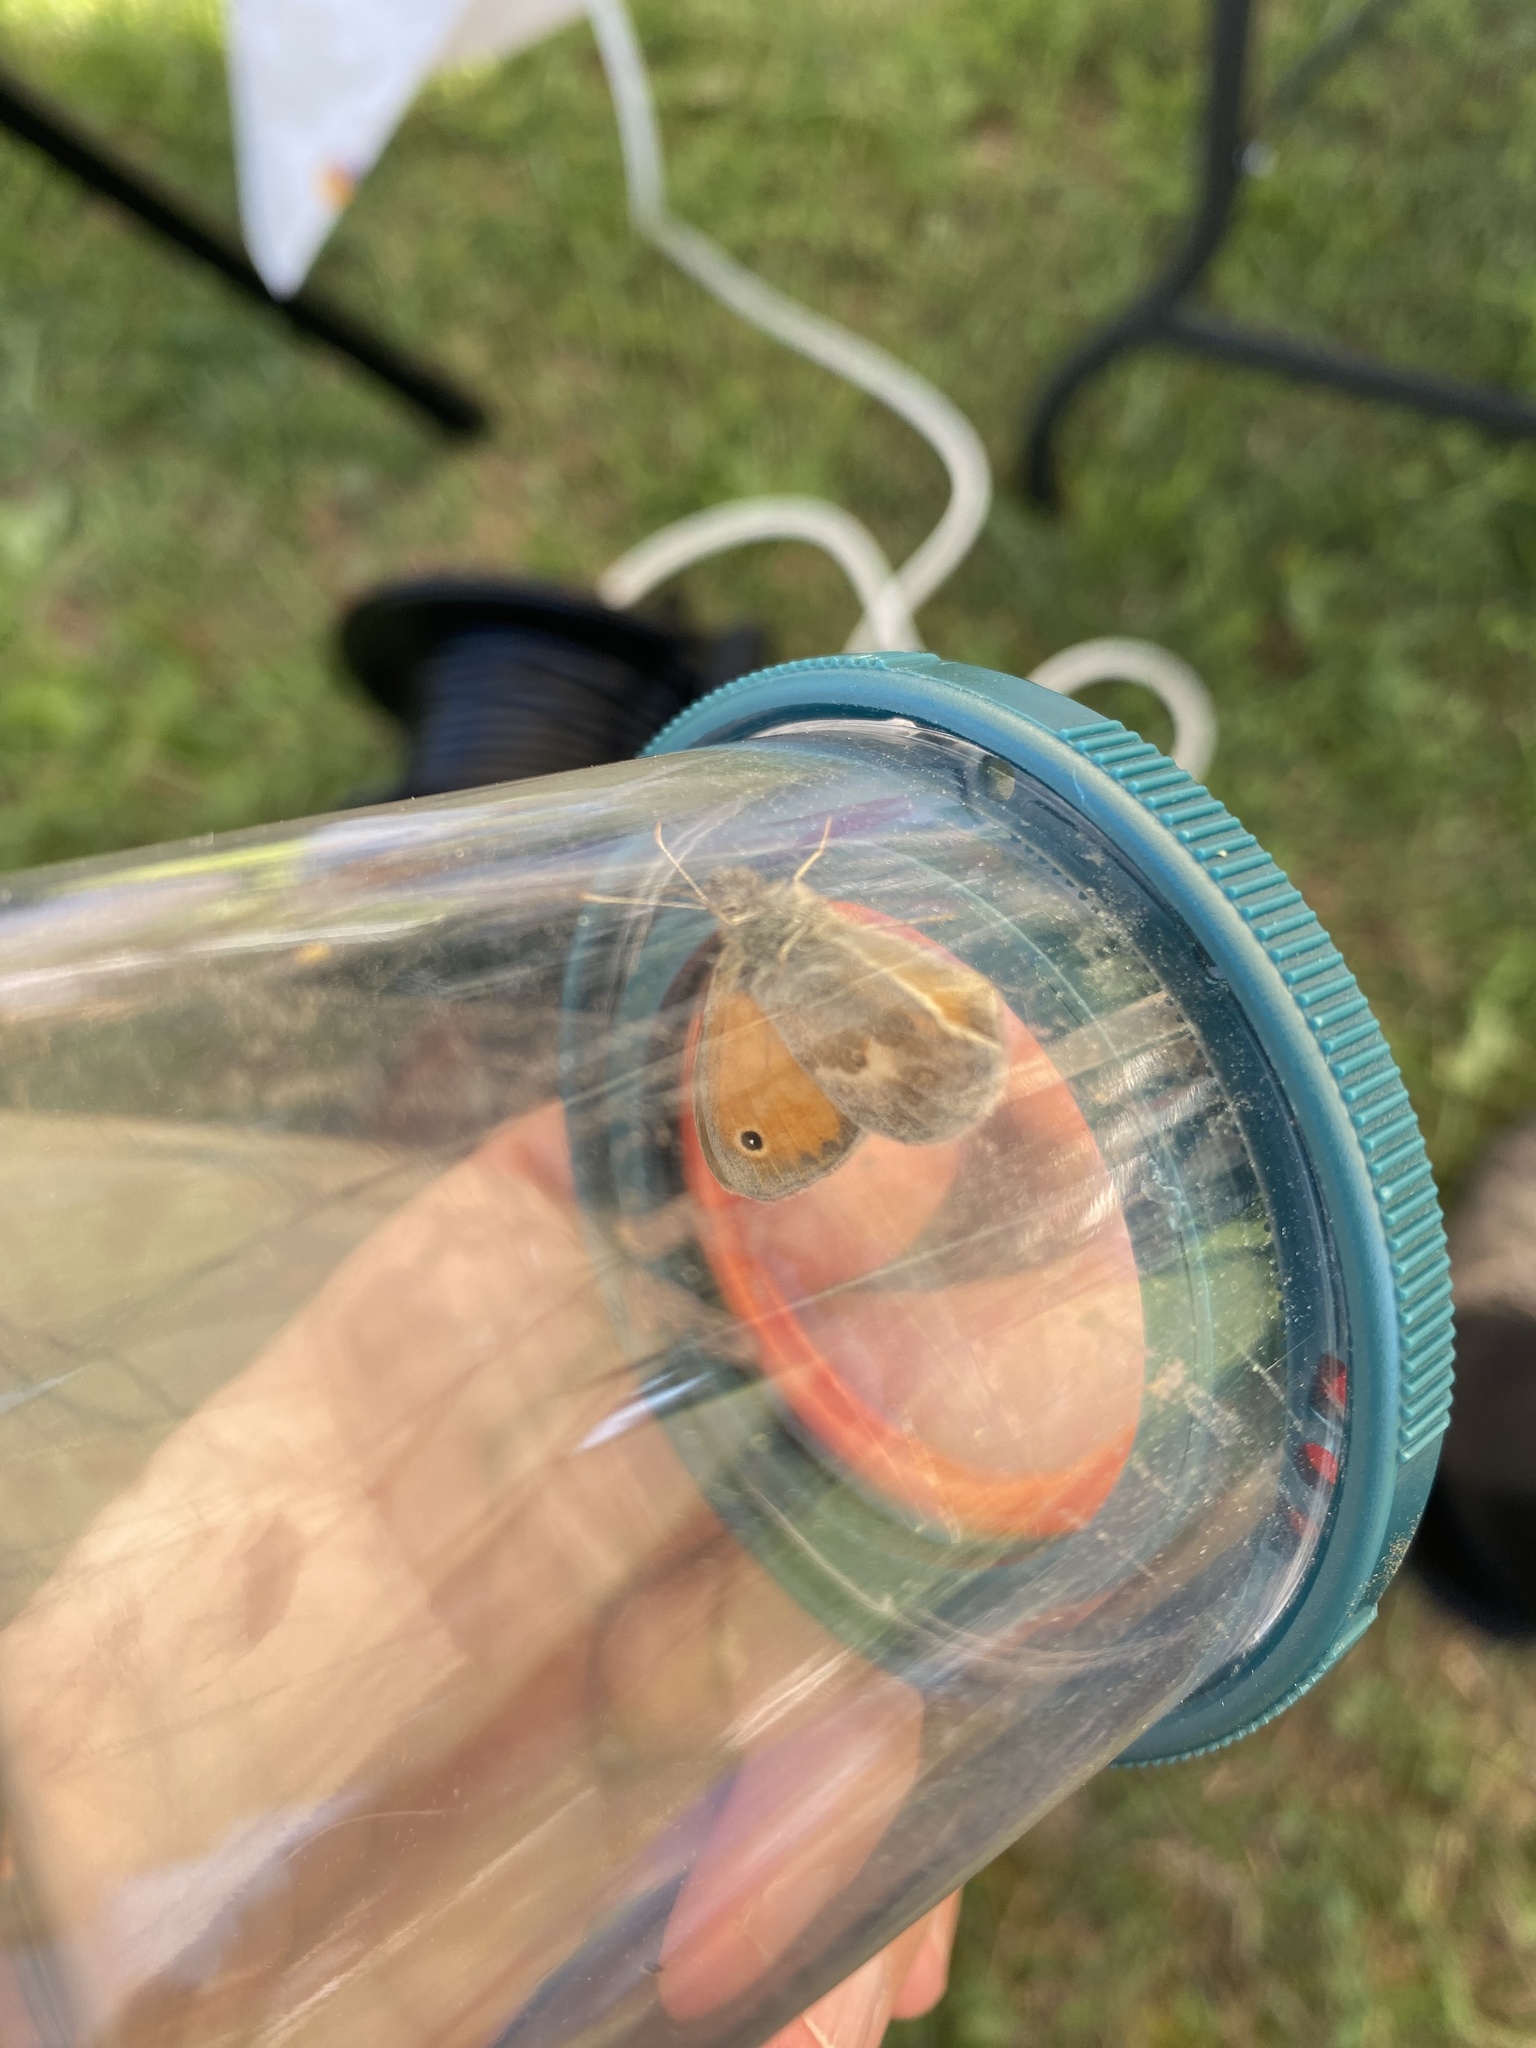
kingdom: Animalia
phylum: Arthropoda
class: Insecta
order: Lepidoptera
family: Nymphalidae
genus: Coenonympha
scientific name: Coenonympha pamphilus
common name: Small heath
